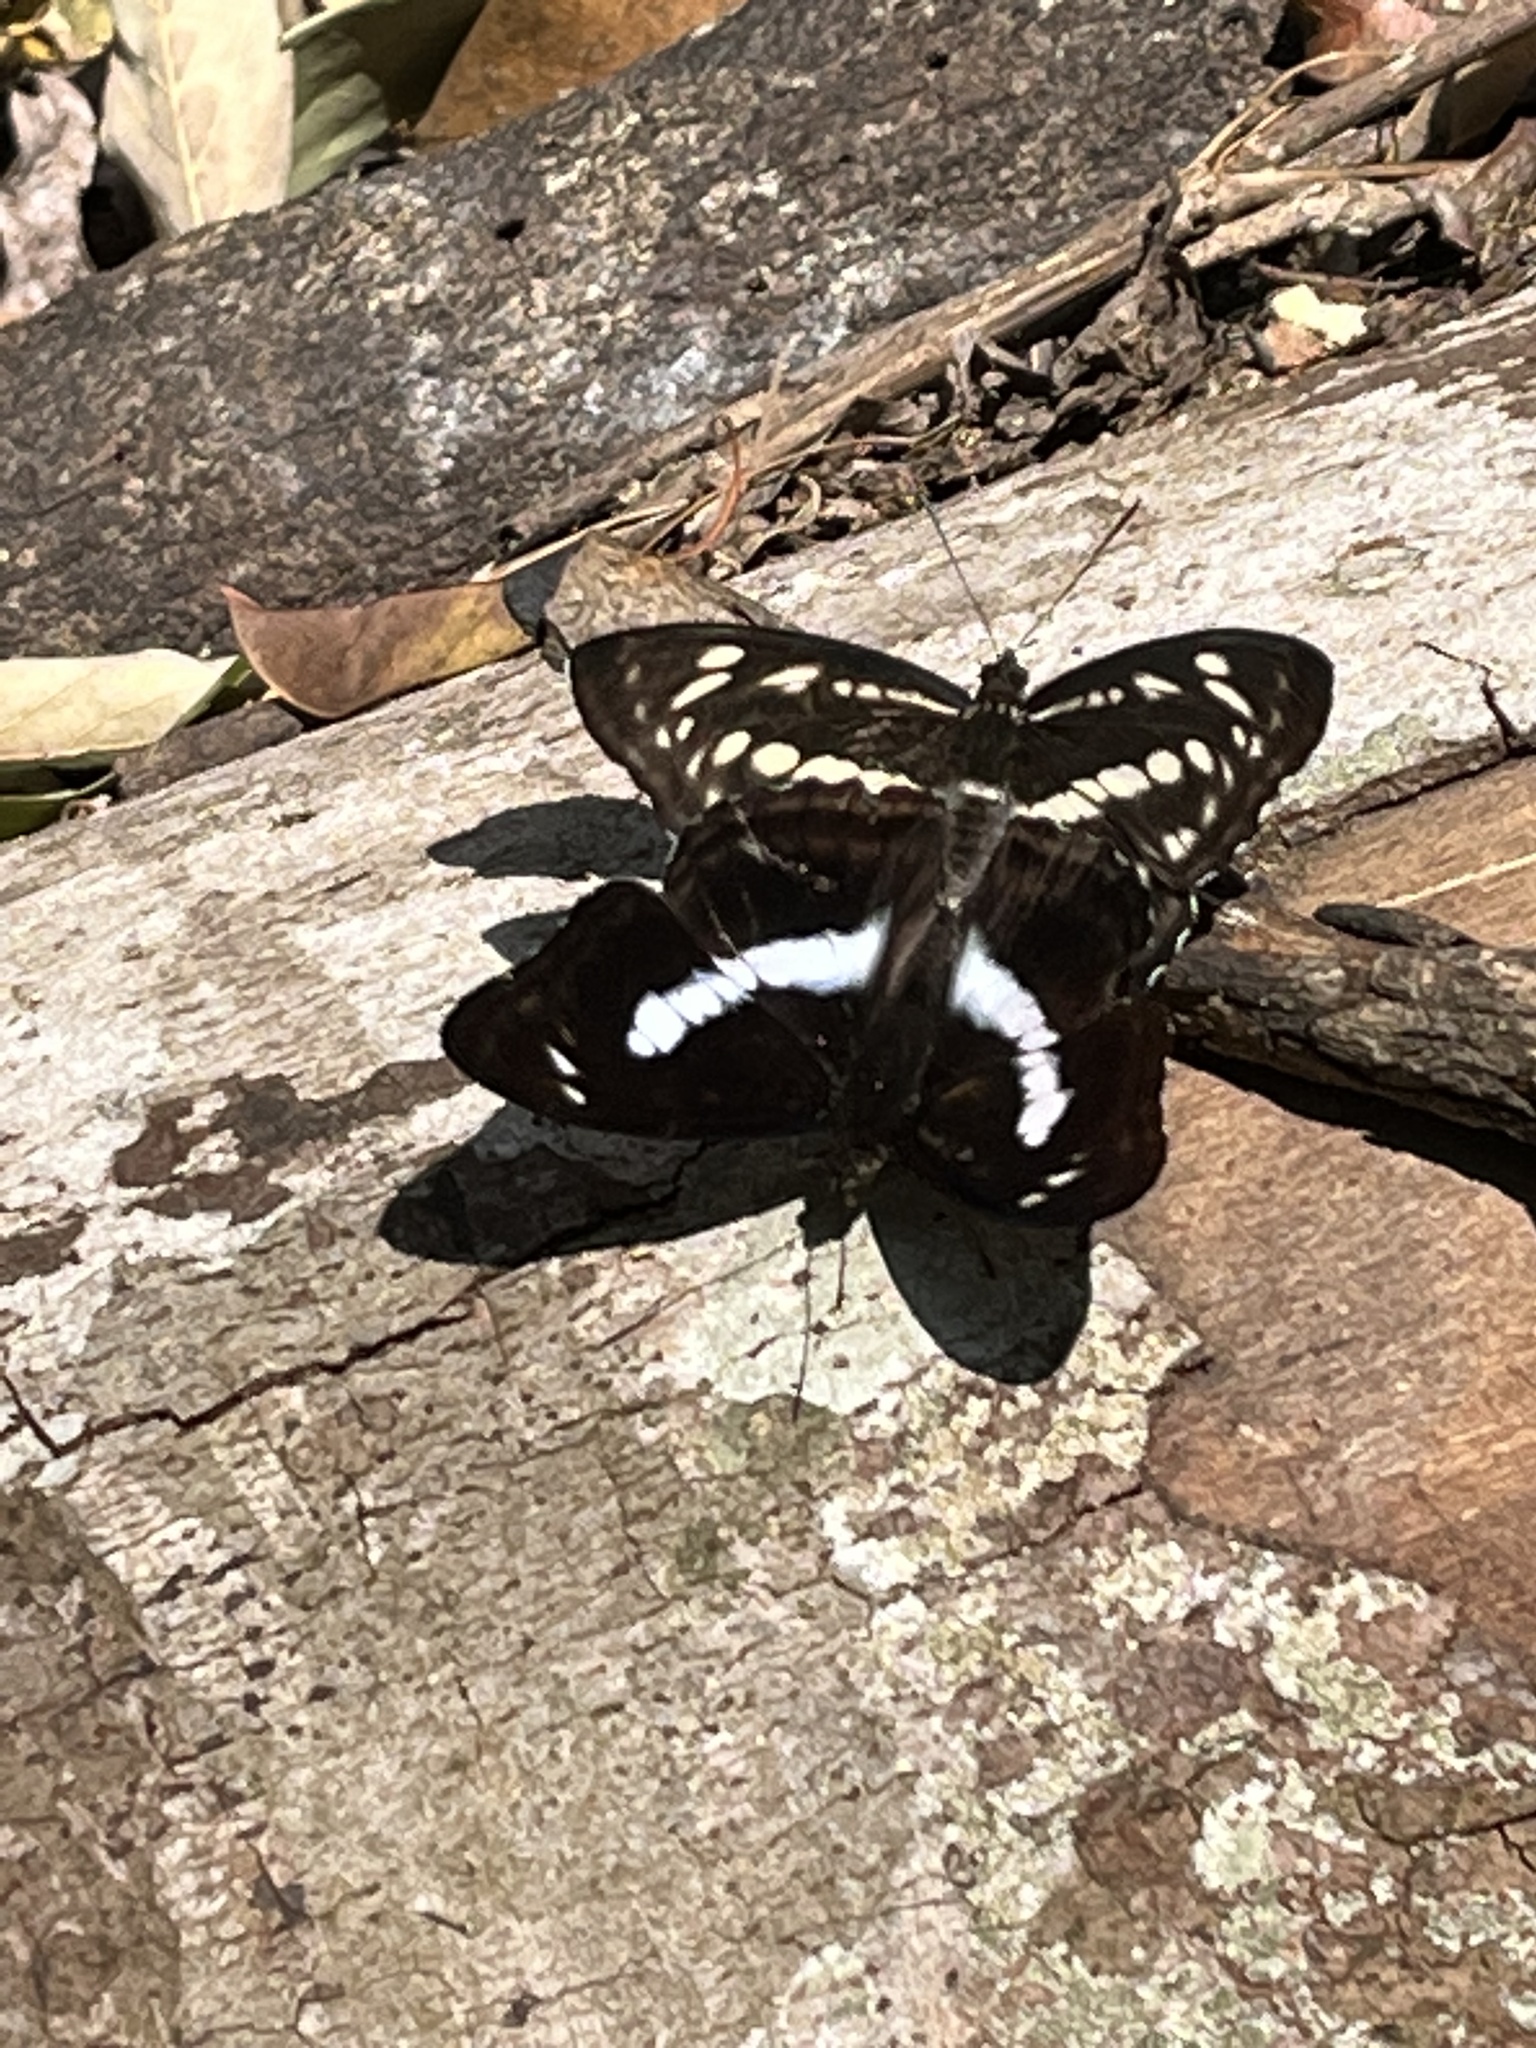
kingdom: Animalia
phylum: Arthropoda
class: Insecta
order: Lepidoptera
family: Nymphalidae
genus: Parathyma
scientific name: Parathyma selenophora
